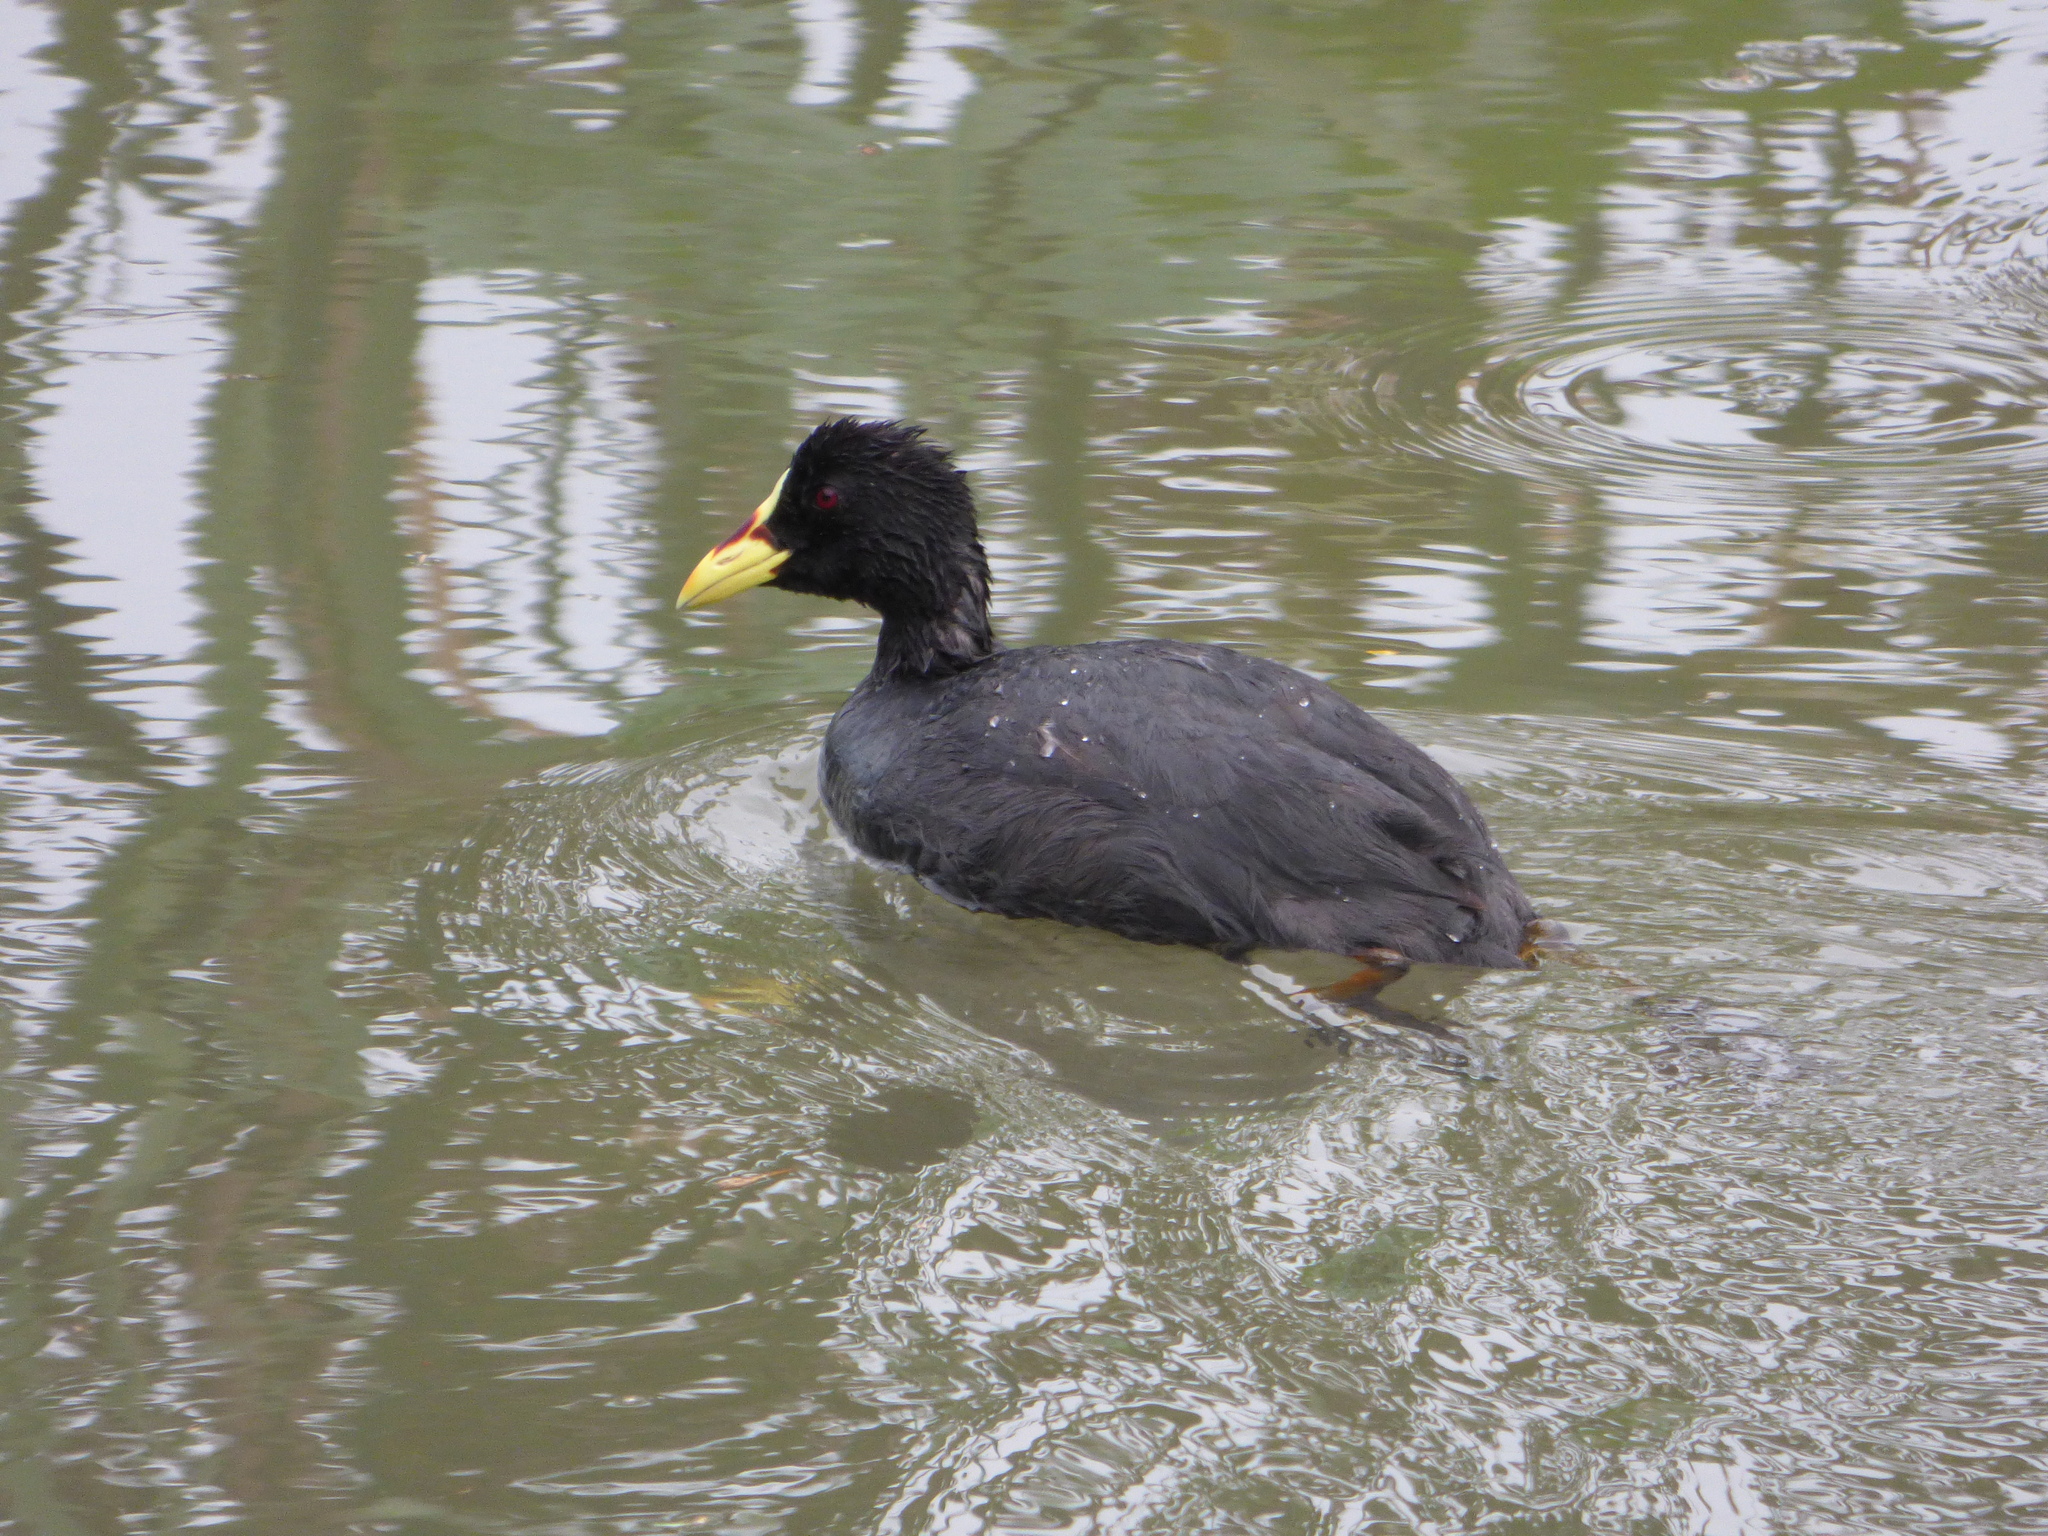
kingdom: Animalia
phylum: Chordata
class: Aves
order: Gruiformes
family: Rallidae
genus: Fulica
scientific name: Fulica armillata
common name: Red-gartered coot
